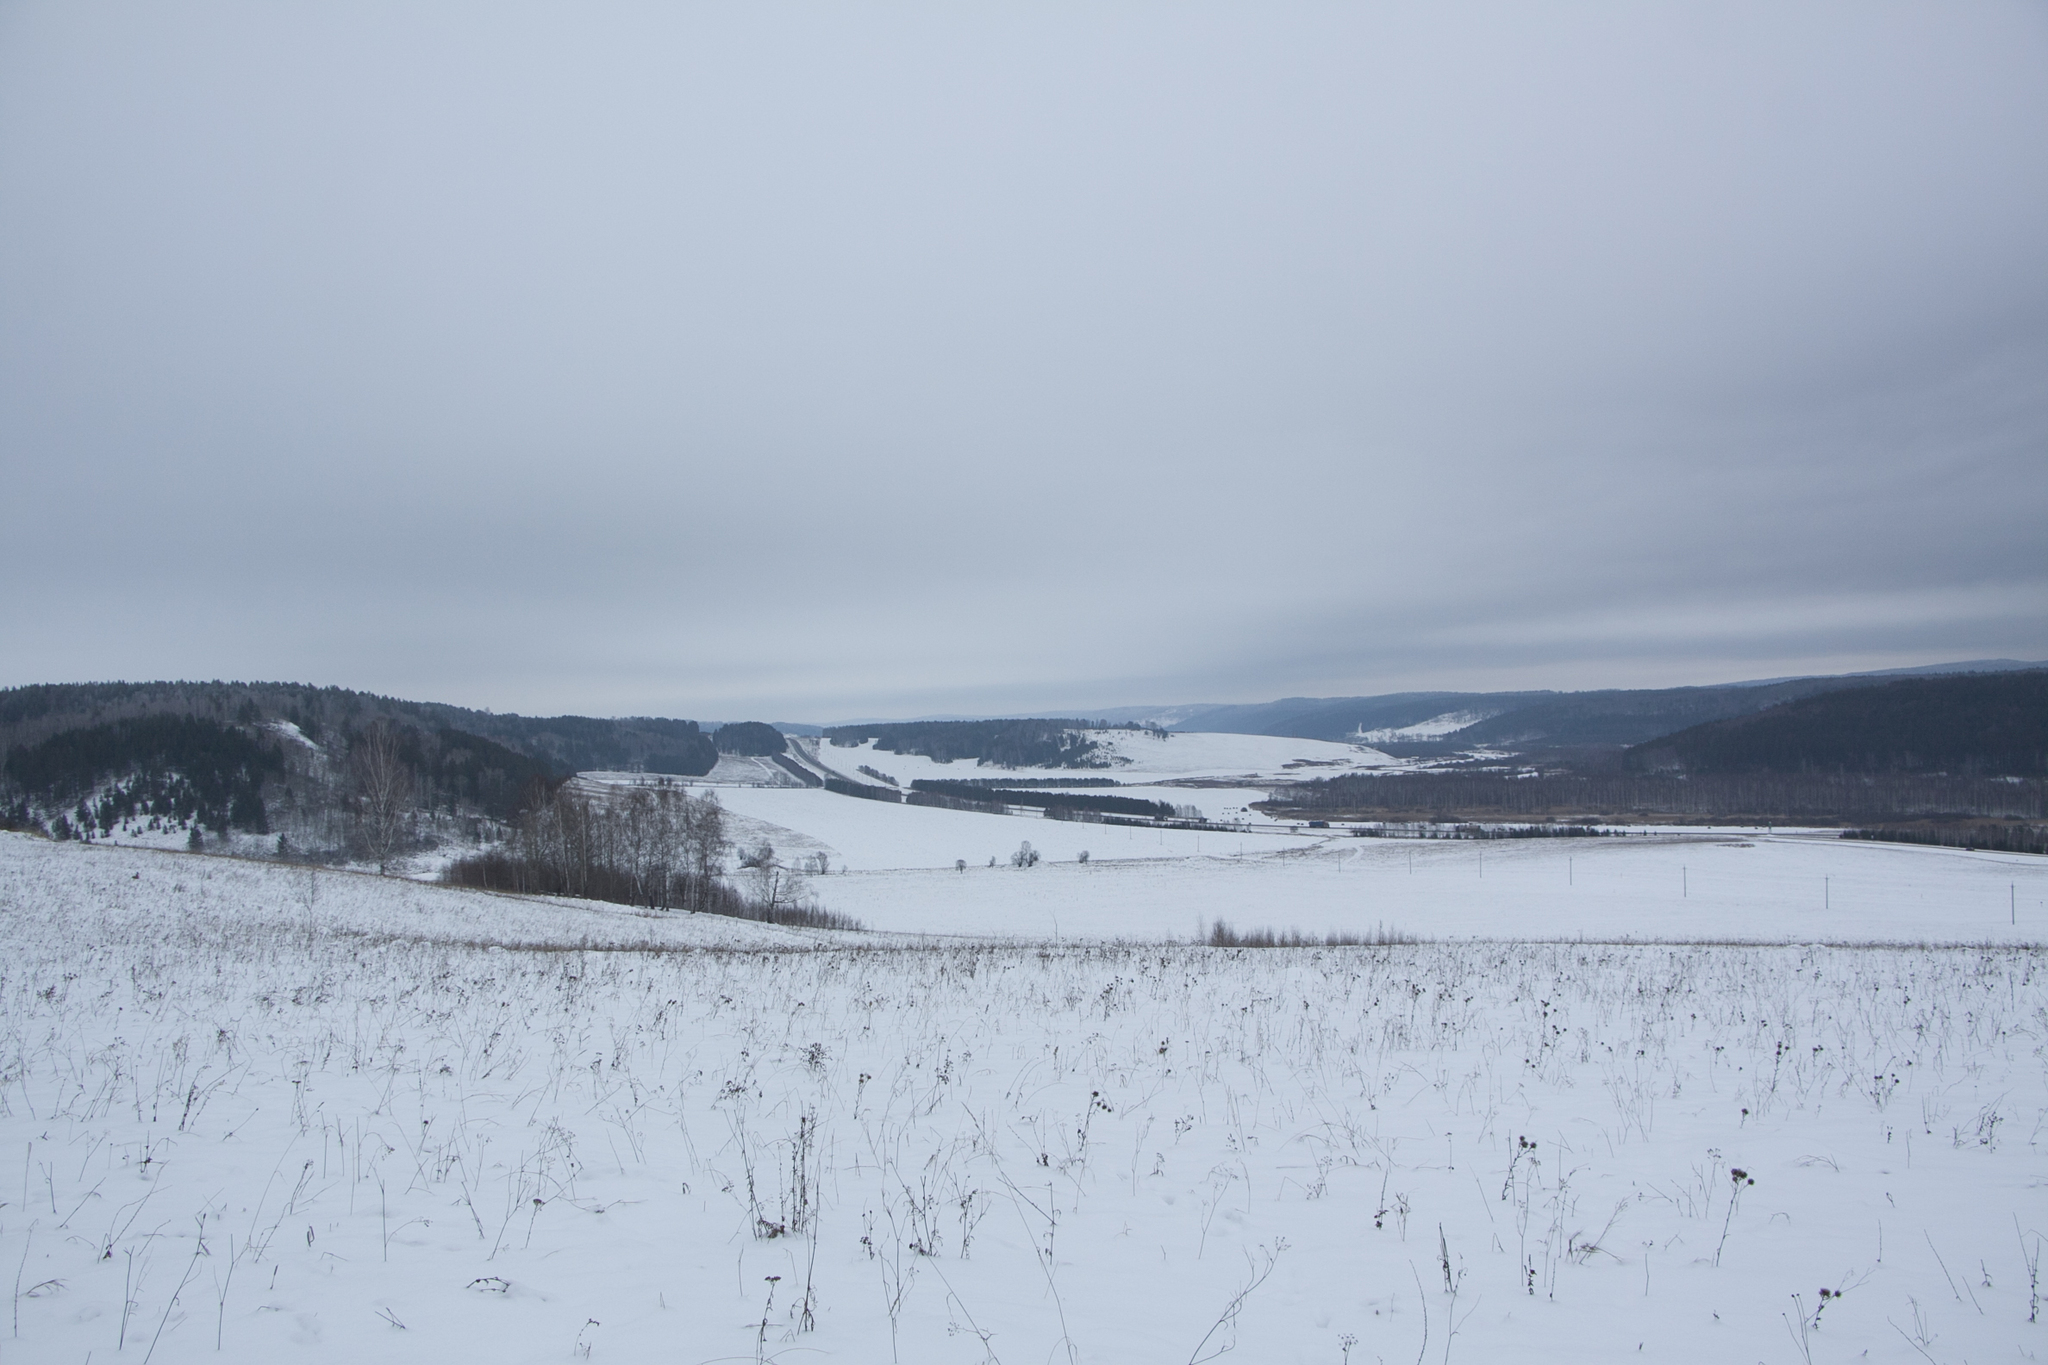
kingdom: Plantae
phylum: Tracheophyta
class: Pinopsida
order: Pinales
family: Pinaceae
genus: Pinus
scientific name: Pinus sylvestris
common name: Scots pine
